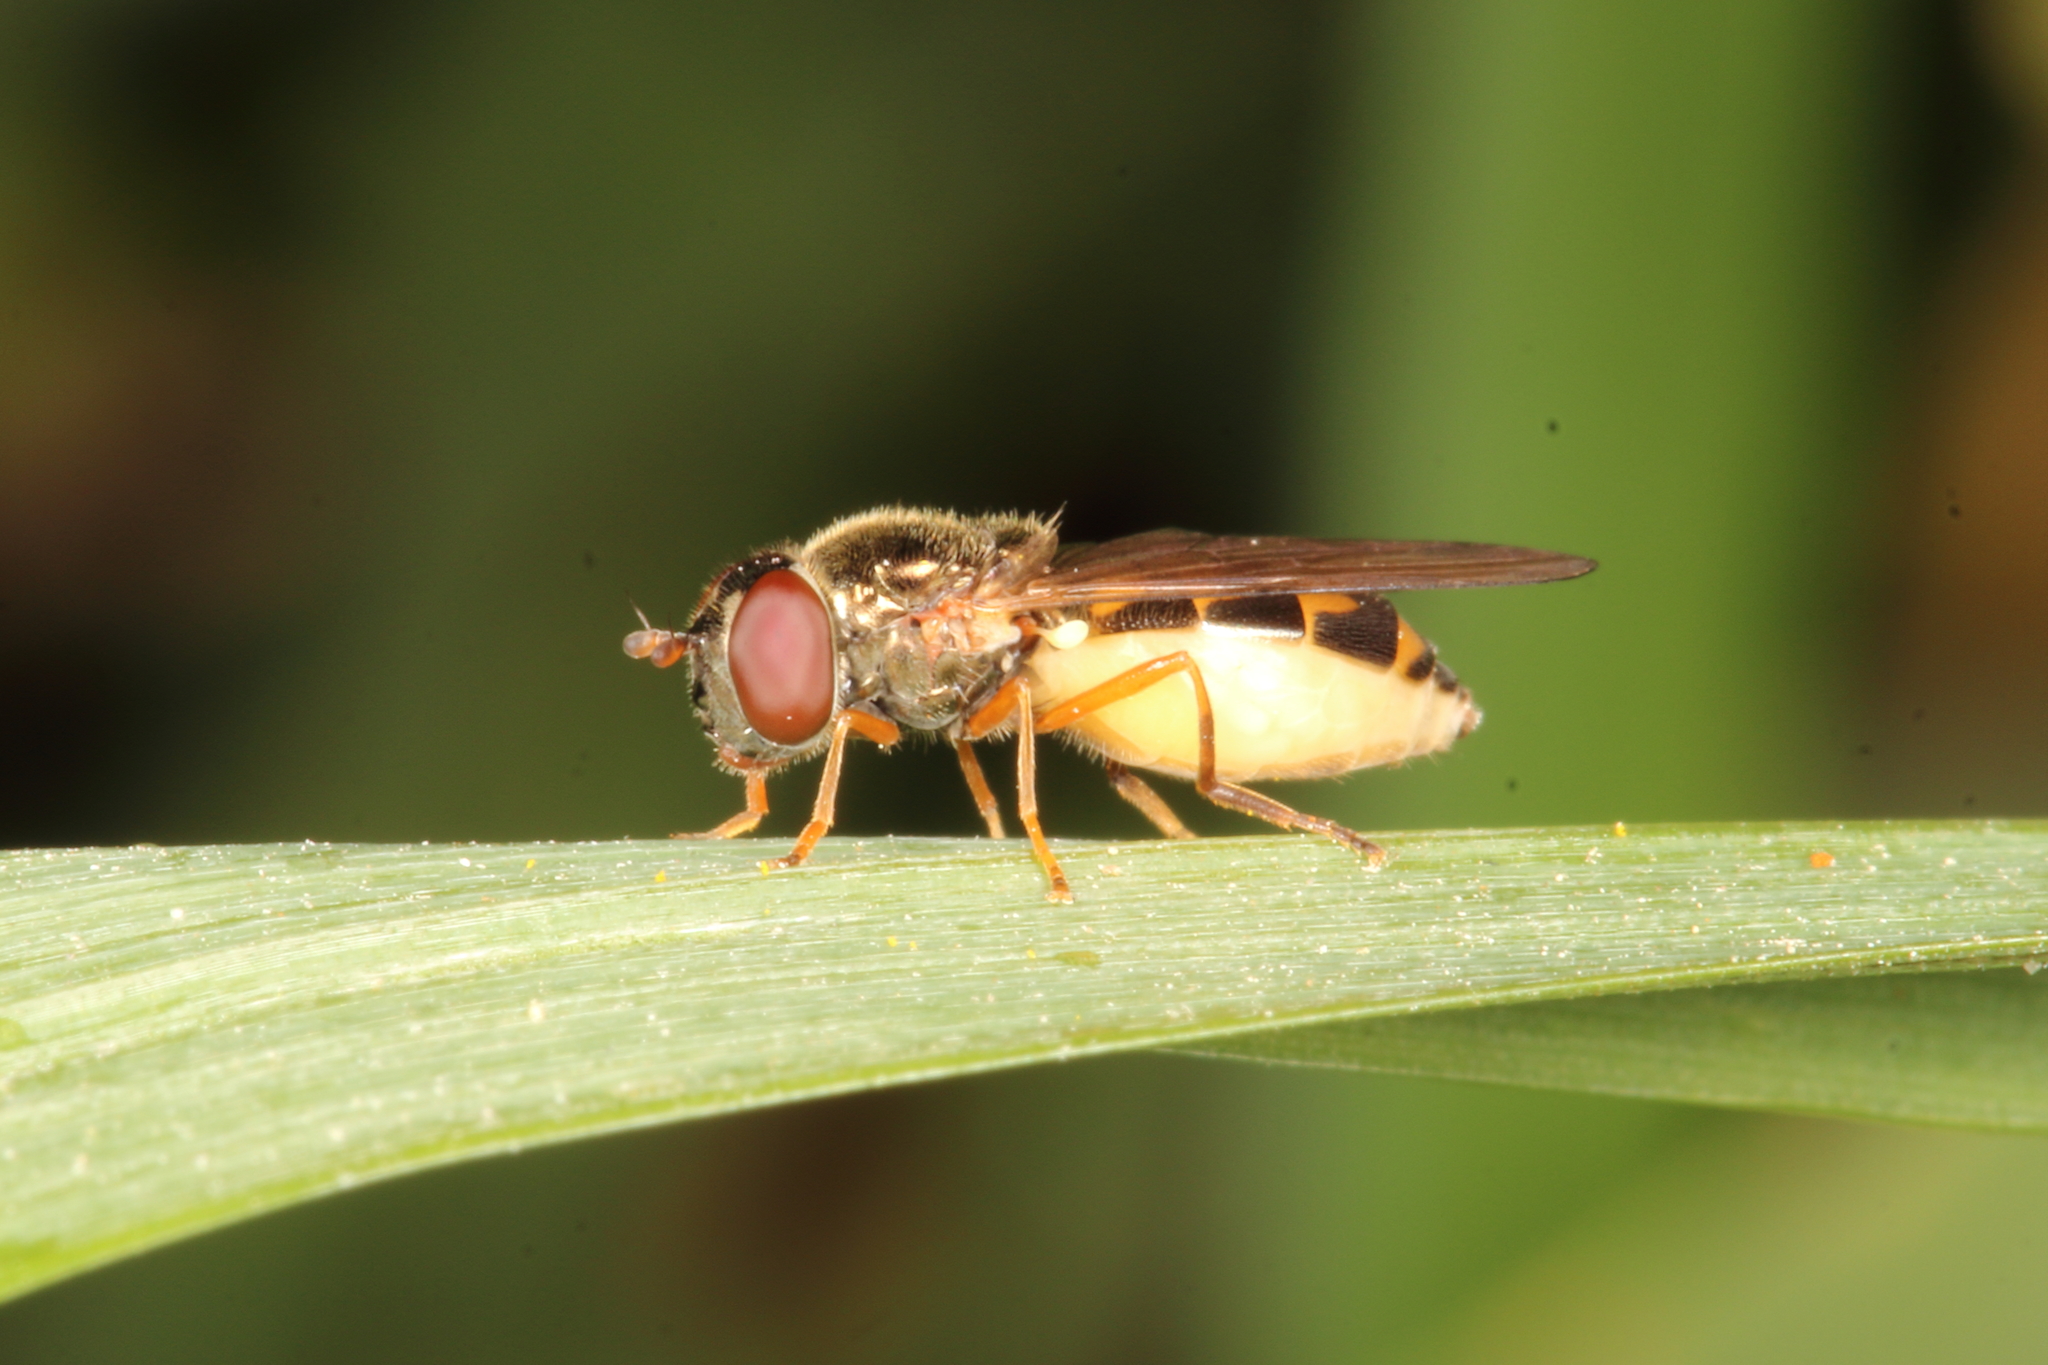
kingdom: Animalia
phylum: Arthropoda
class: Insecta
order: Diptera
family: Syrphidae
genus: Melanostoma
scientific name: Melanostoma fasciatum
